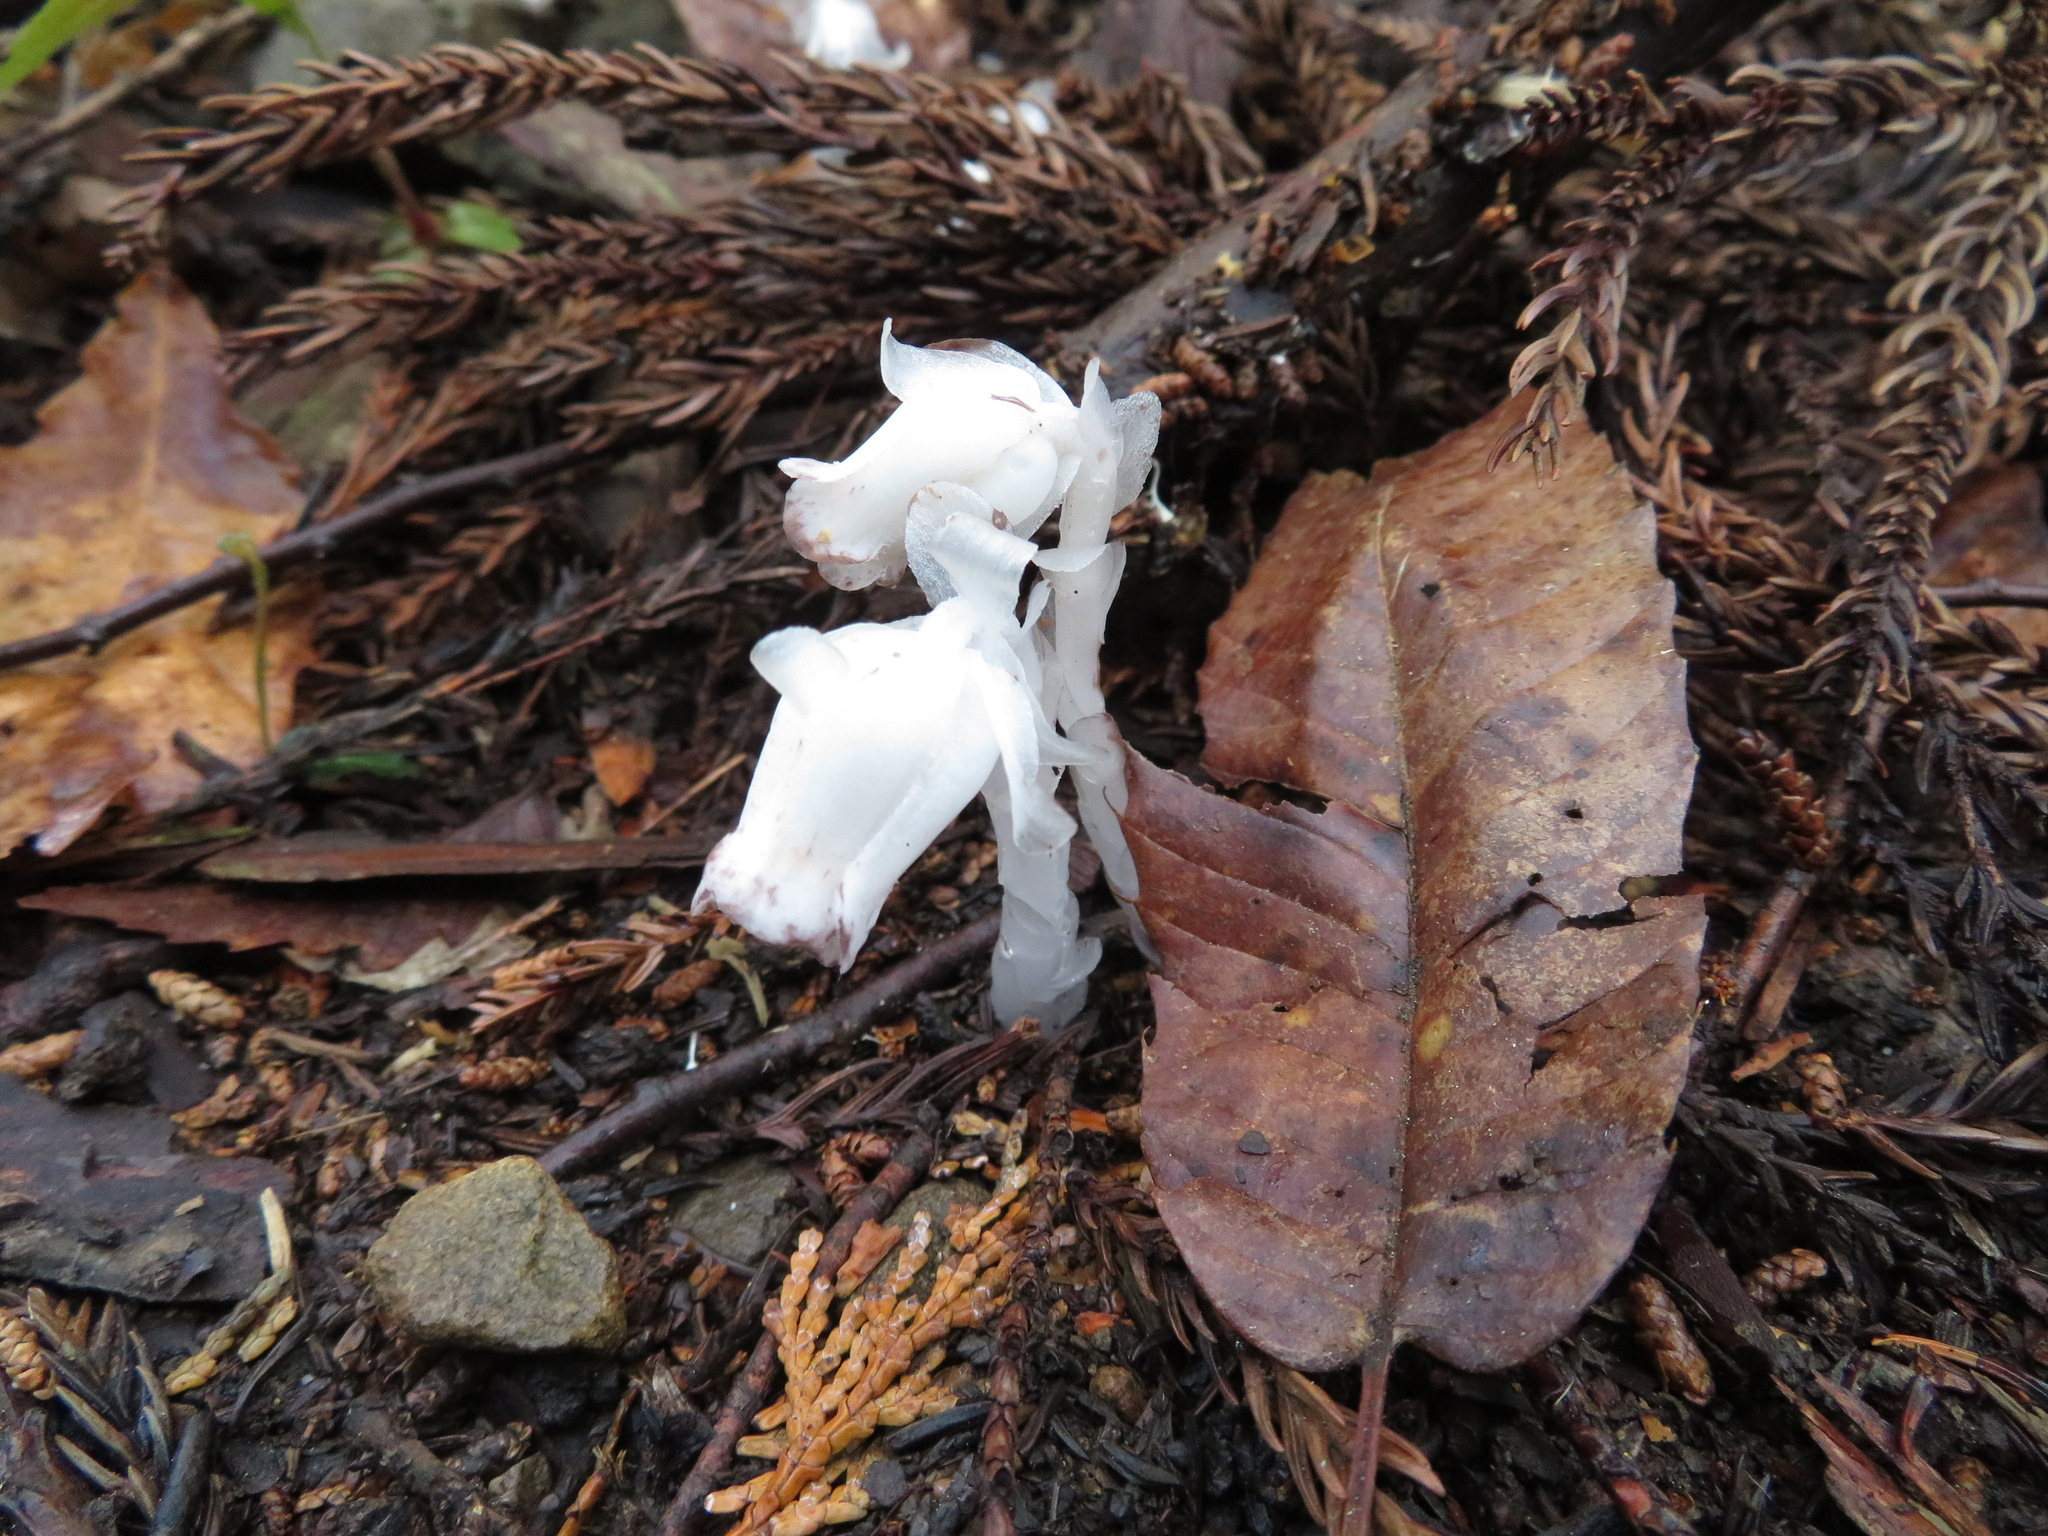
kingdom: Plantae
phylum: Tracheophyta
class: Magnoliopsida
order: Ericales
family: Ericaceae
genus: Monotropastrum
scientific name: Monotropastrum humile
